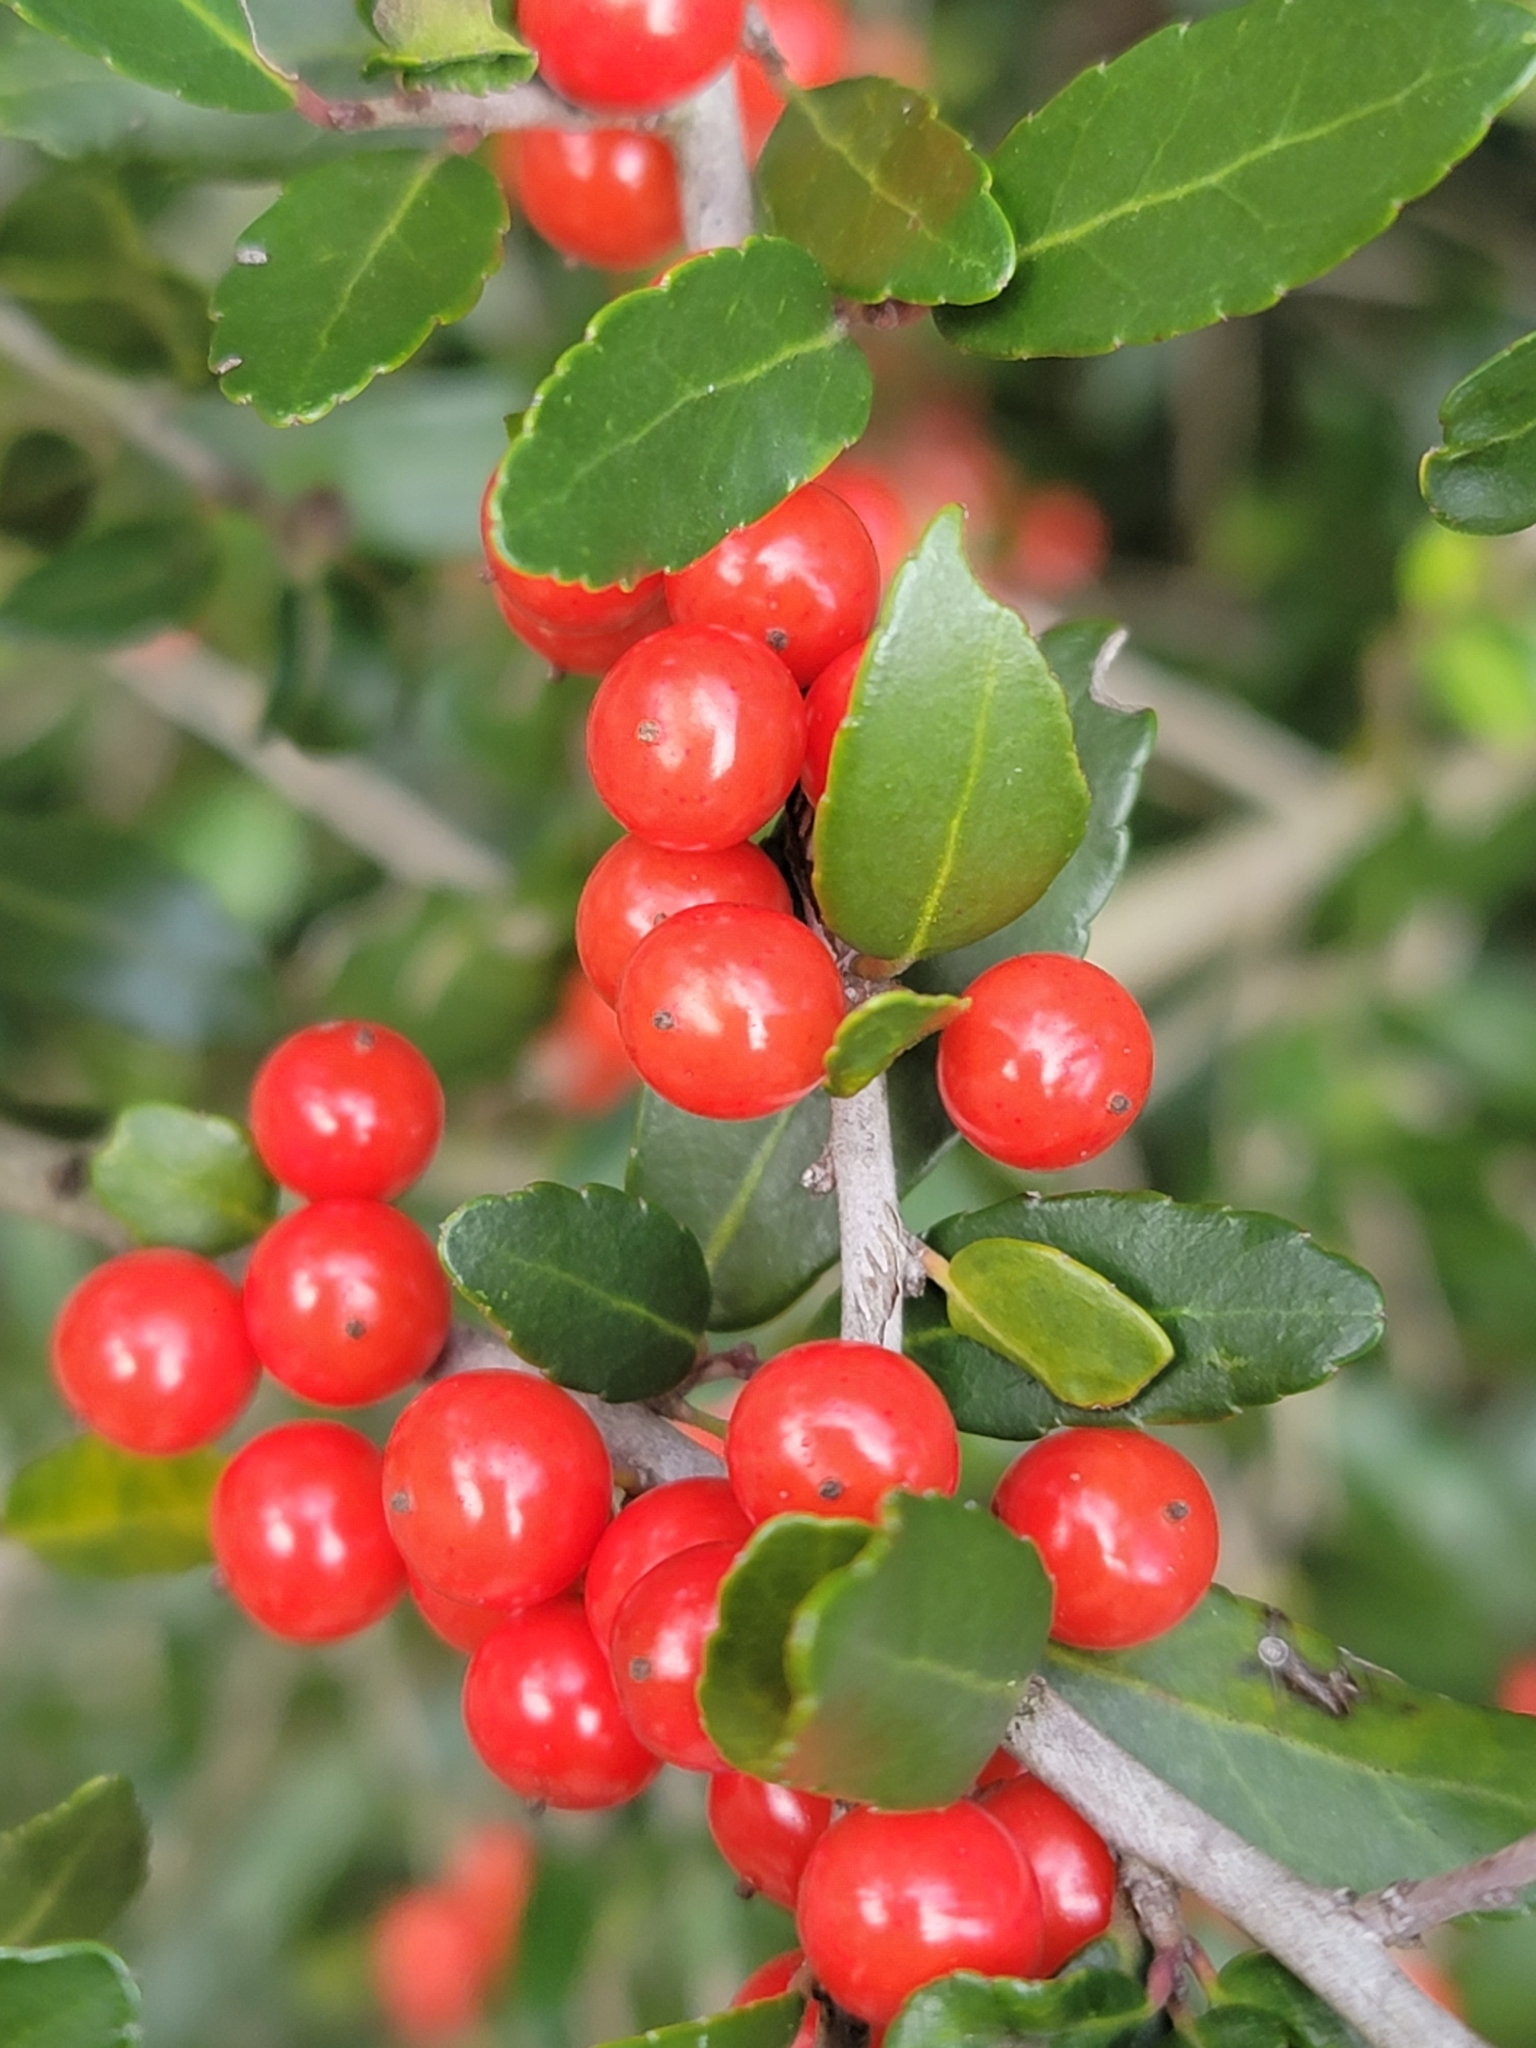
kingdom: Plantae
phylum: Tracheophyta
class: Magnoliopsida
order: Aquifoliales
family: Aquifoliaceae
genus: Ilex
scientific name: Ilex vomitoria
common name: Yaupon holly
